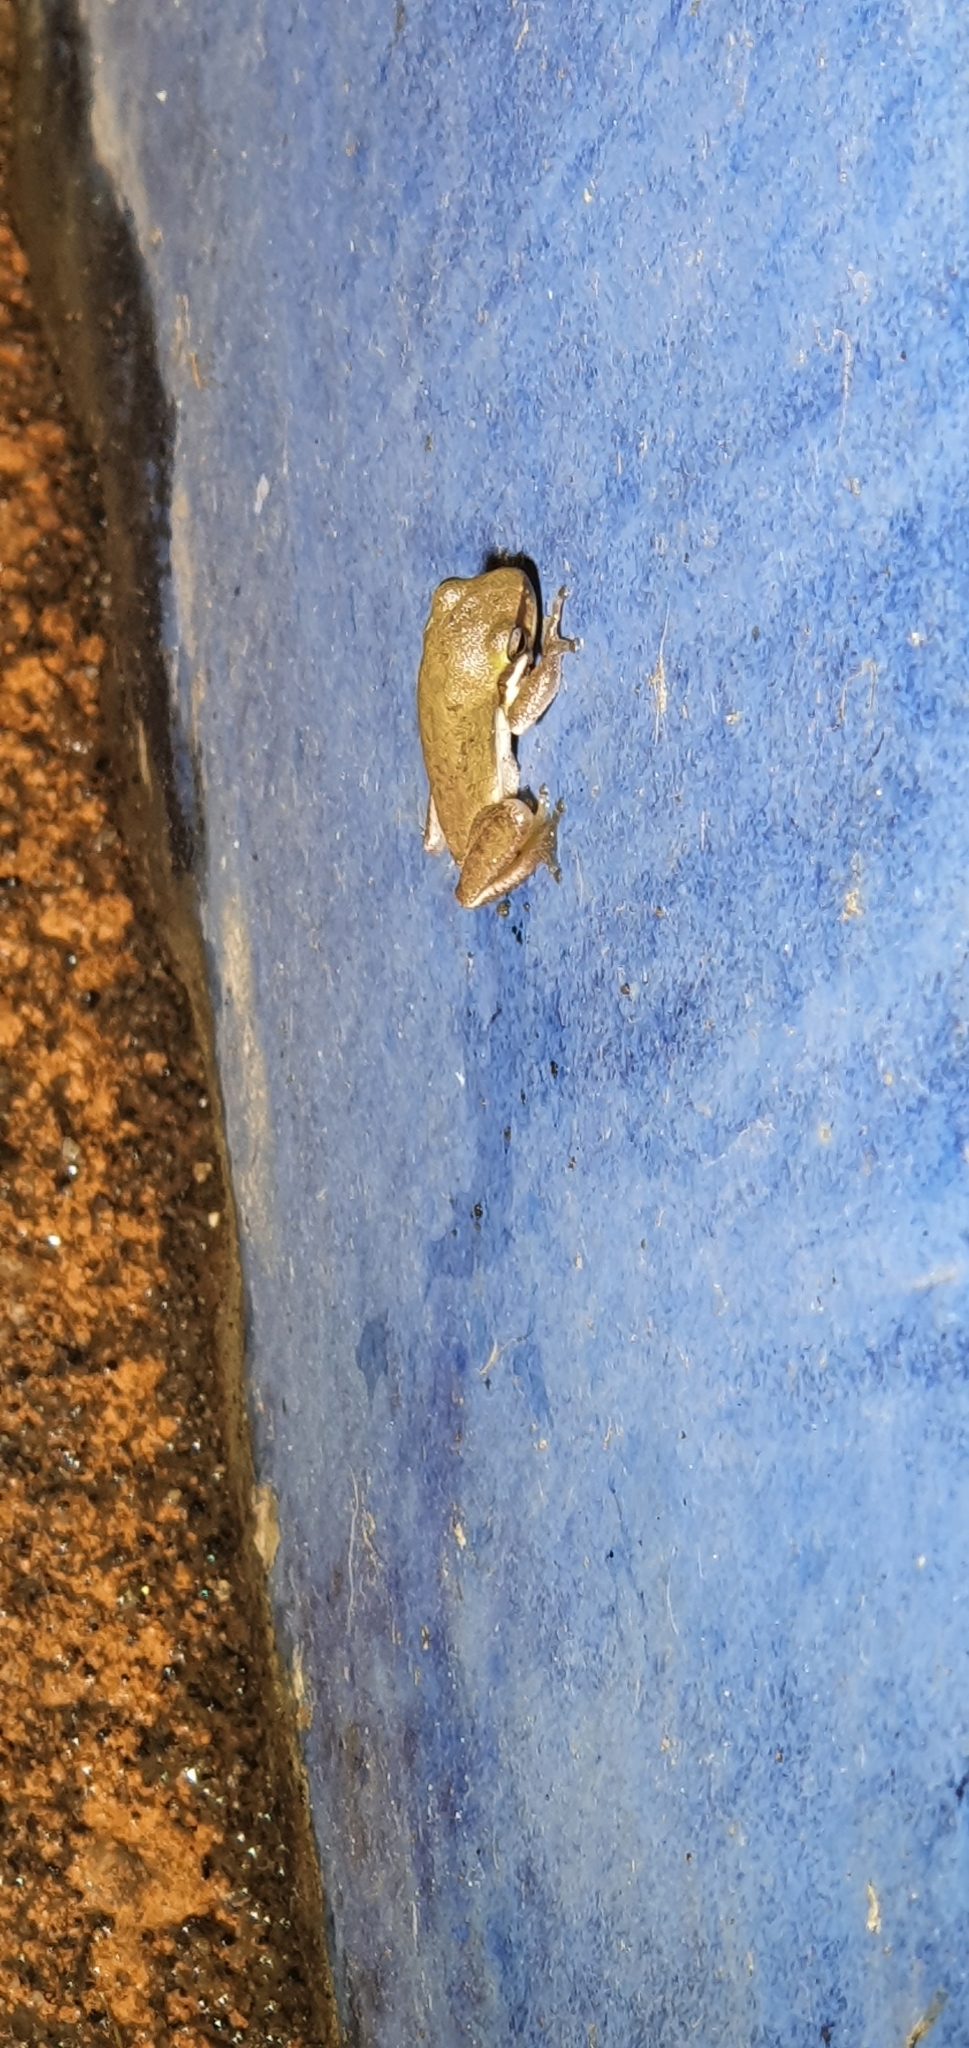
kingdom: Animalia
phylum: Chordata
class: Amphibia
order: Anura
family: Pelodryadidae
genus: Litoria
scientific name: Litoria fallax
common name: Eastern dwarf treefrog
